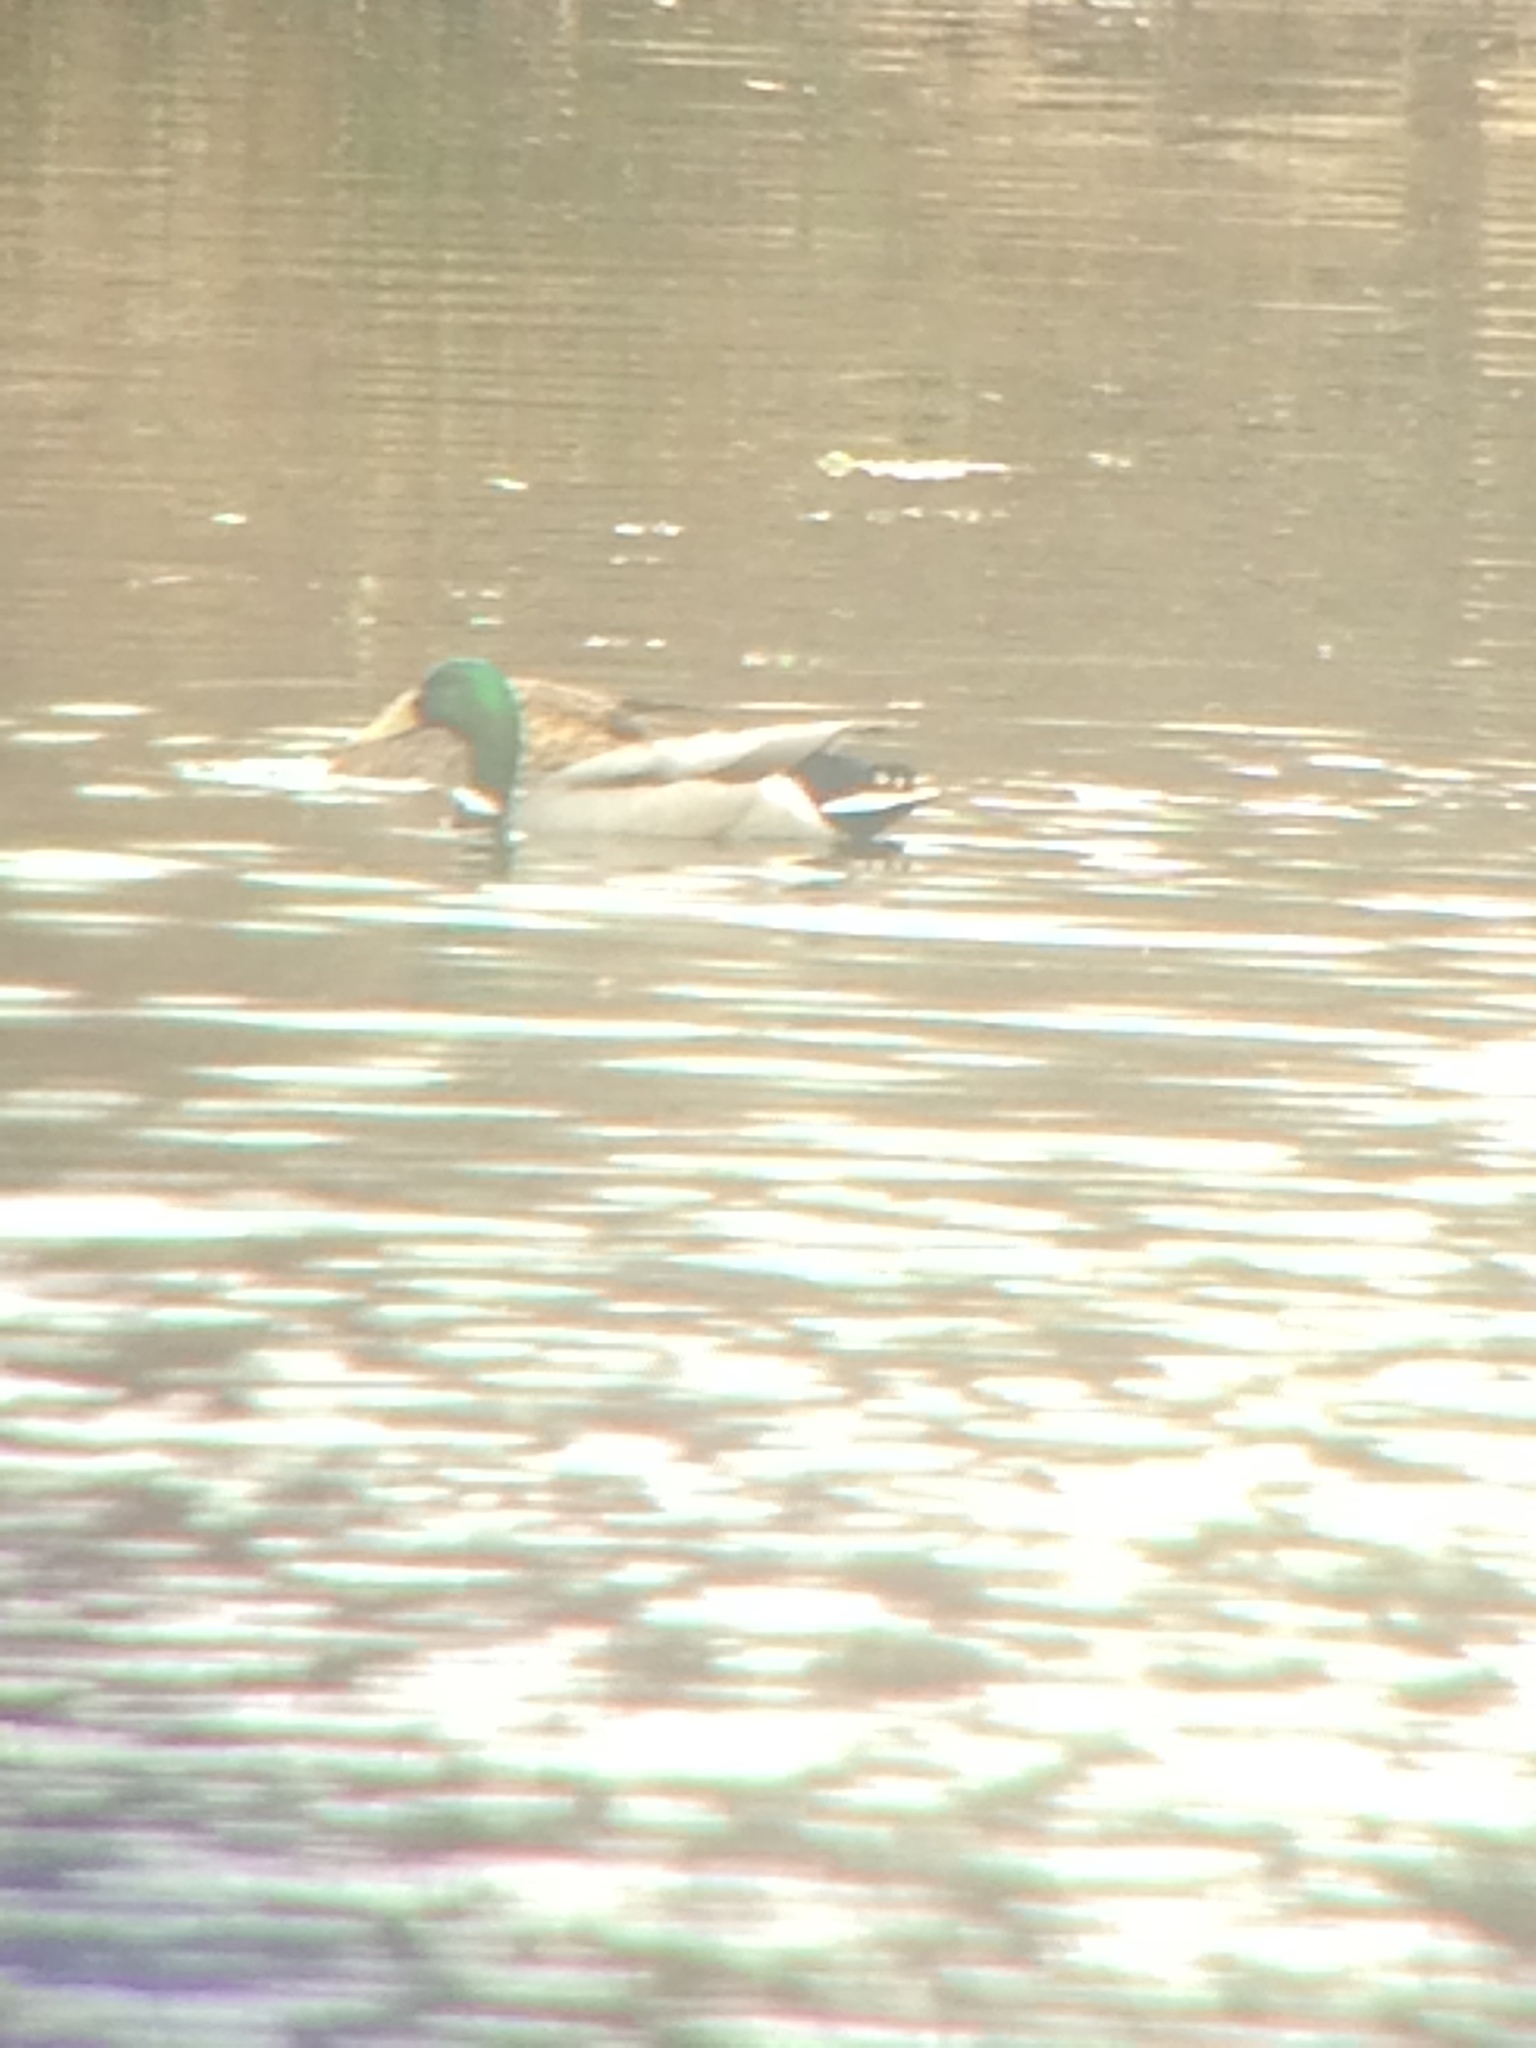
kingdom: Animalia
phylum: Chordata
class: Aves
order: Anseriformes
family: Anatidae
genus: Anas
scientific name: Anas platyrhynchos
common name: Mallard
